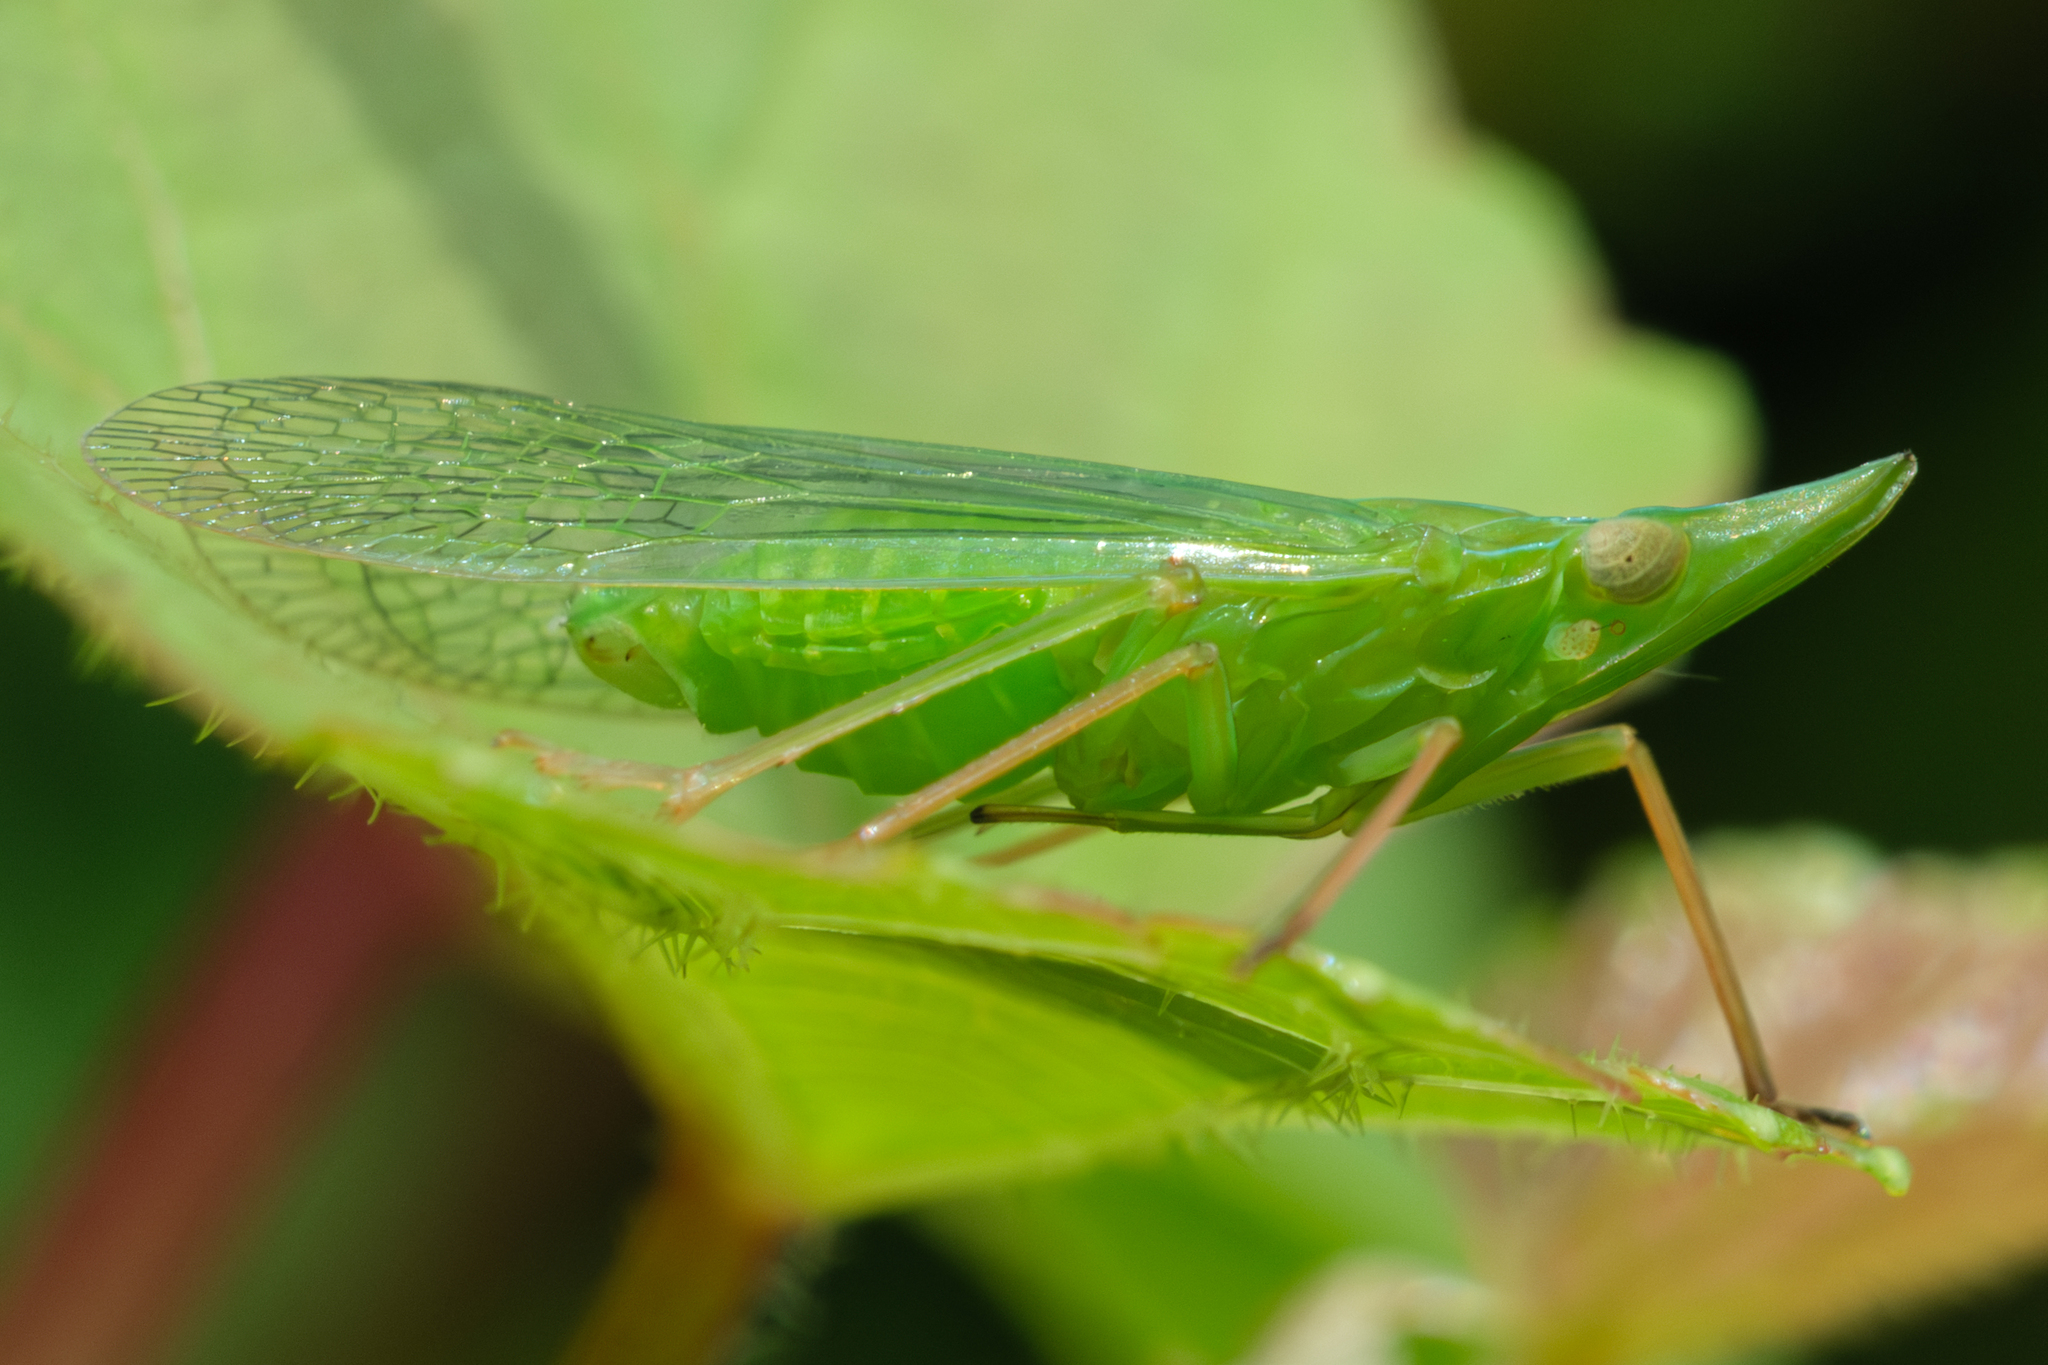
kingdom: Animalia
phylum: Arthropoda
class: Insecta
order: Hemiptera
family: Dictyopharidae
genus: Rhynchomitra
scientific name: Rhynchomitra microrhina
